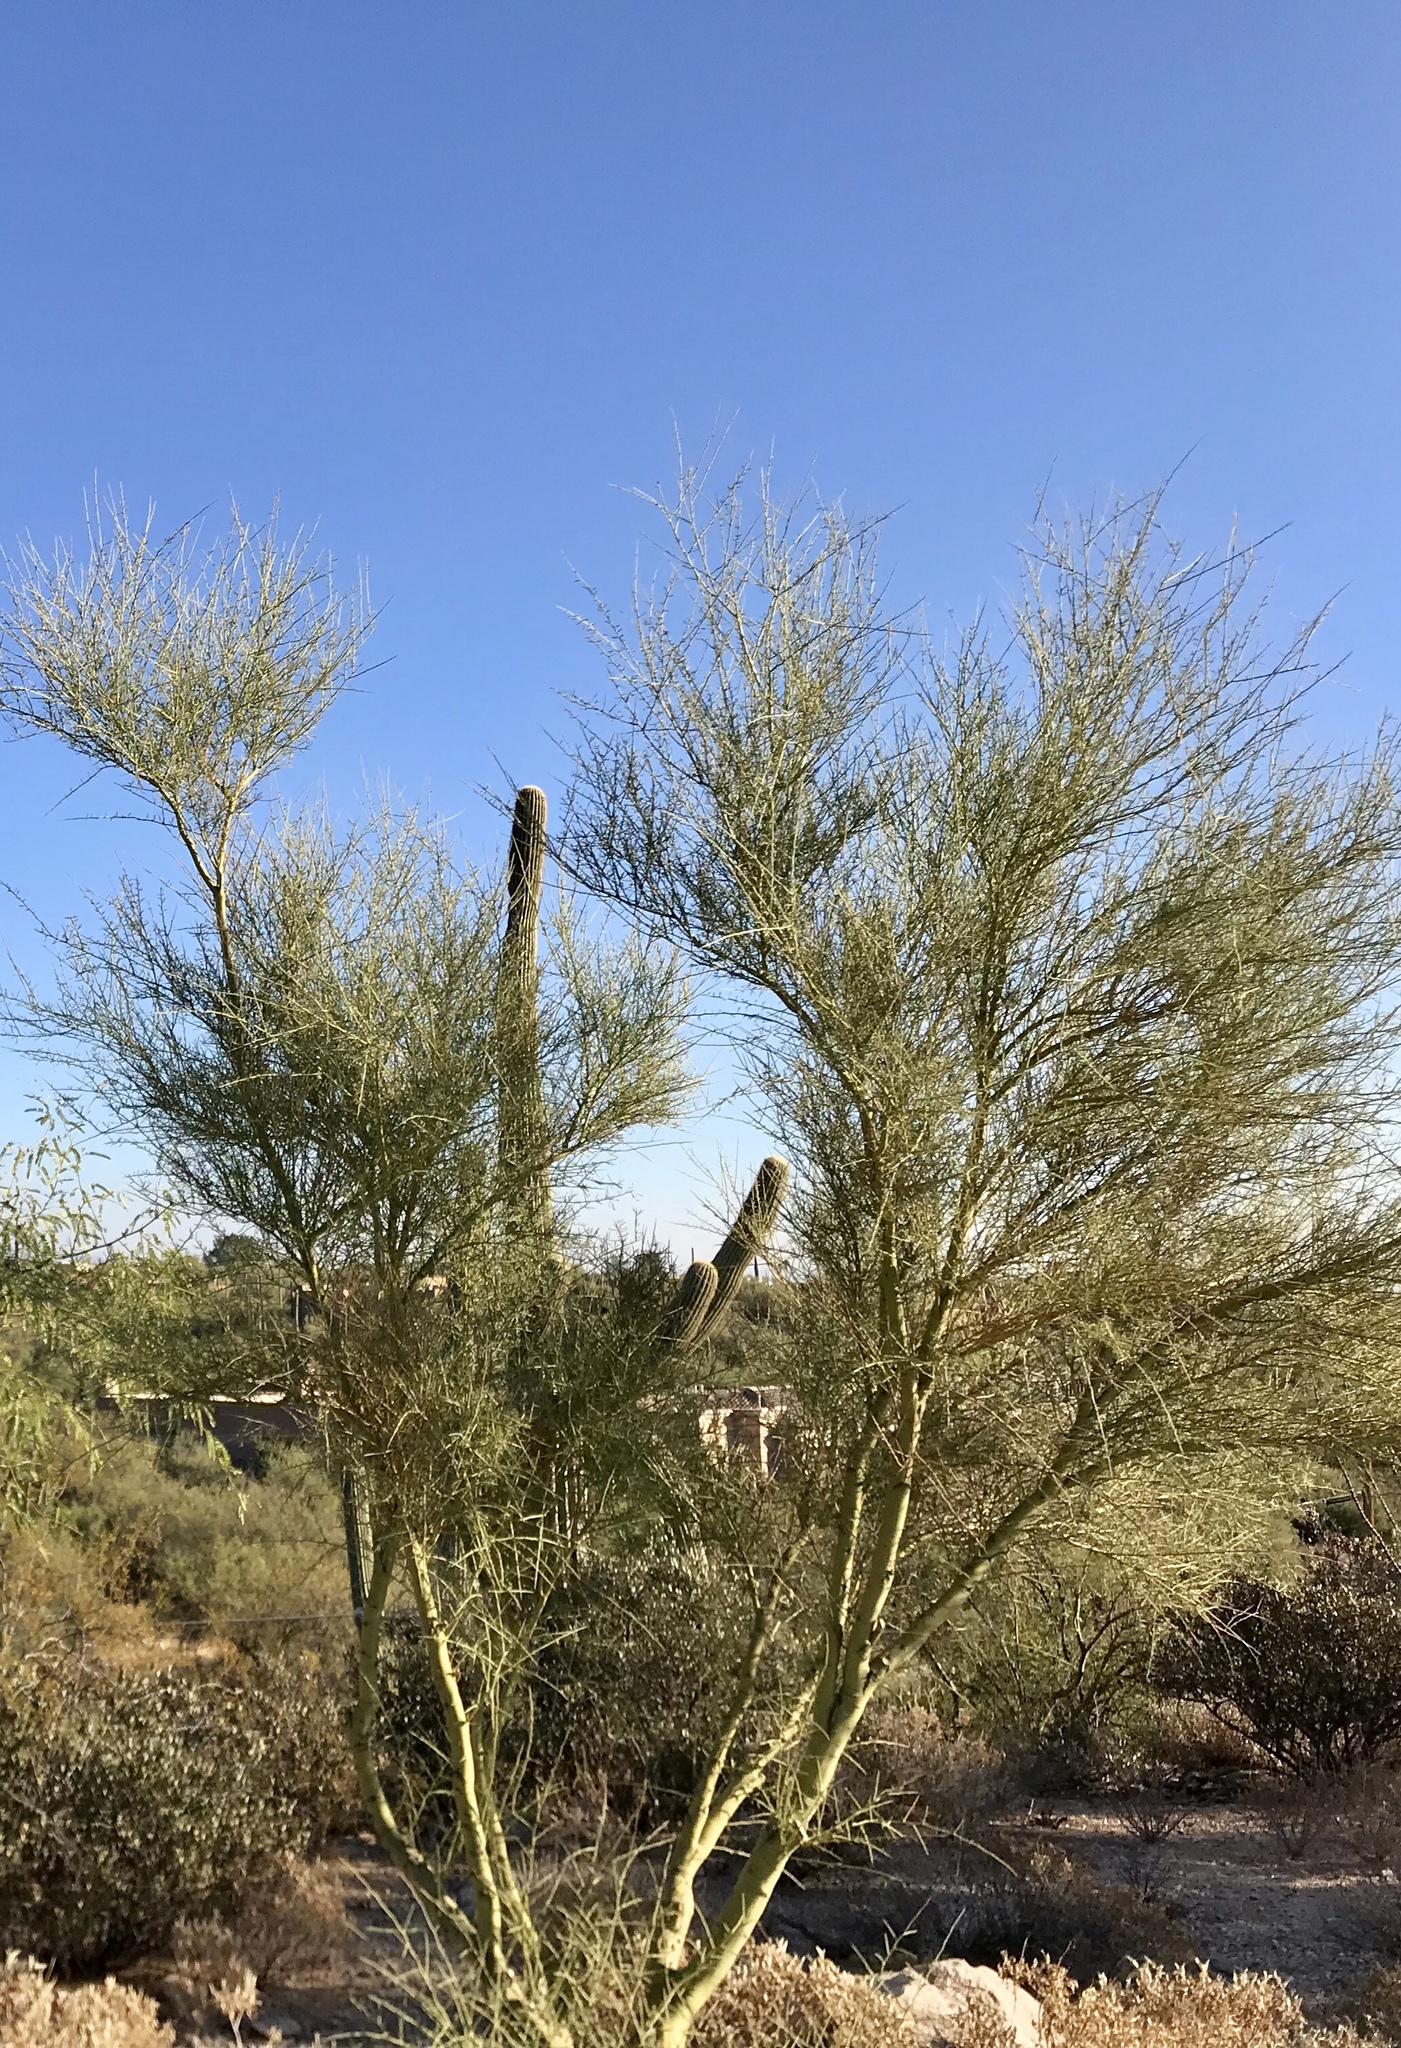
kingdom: Plantae
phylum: Tracheophyta
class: Magnoliopsida
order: Fabales
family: Fabaceae
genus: Parkinsonia
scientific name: Parkinsonia microphylla
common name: Yellow paloverde
